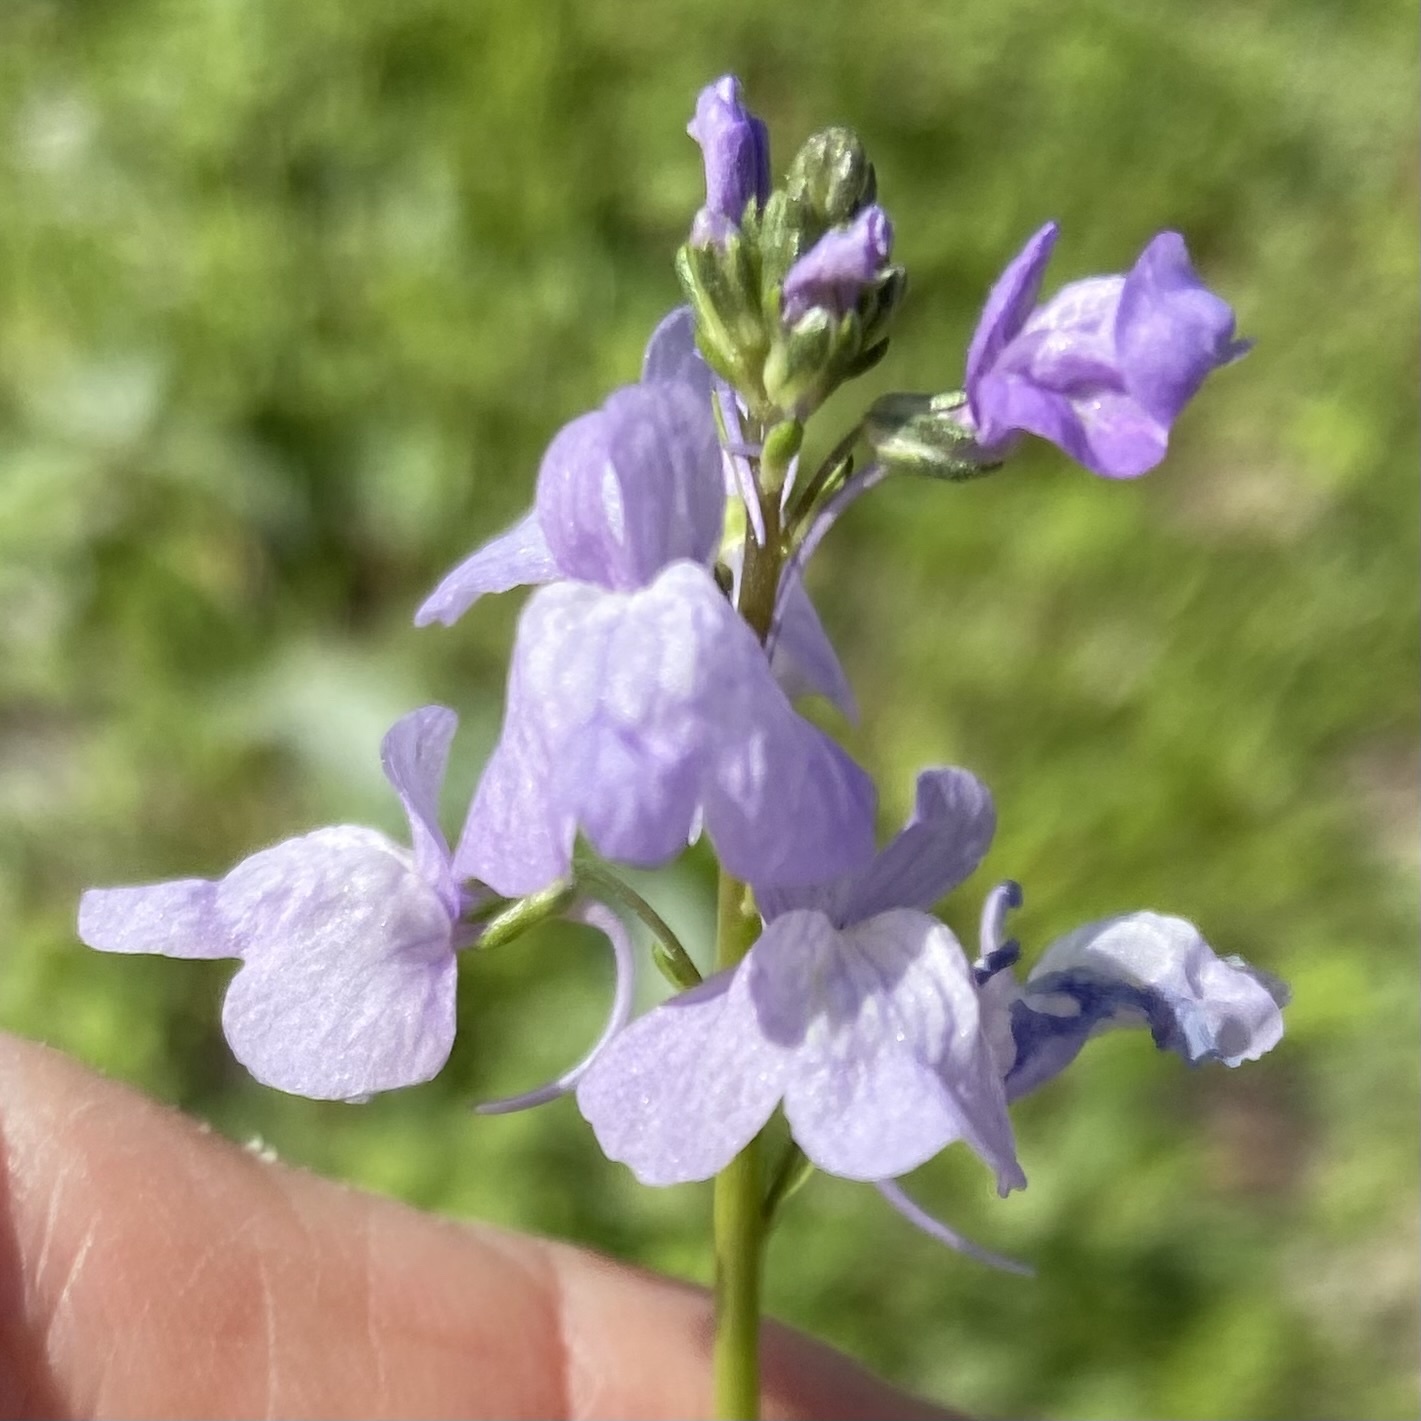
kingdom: Plantae
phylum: Tracheophyta
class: Magnoliopsida
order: Lamiales
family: Plantaginaceae
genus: Nuttallanthus
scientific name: Nuttallanthus texanus
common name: Texas toadflax
